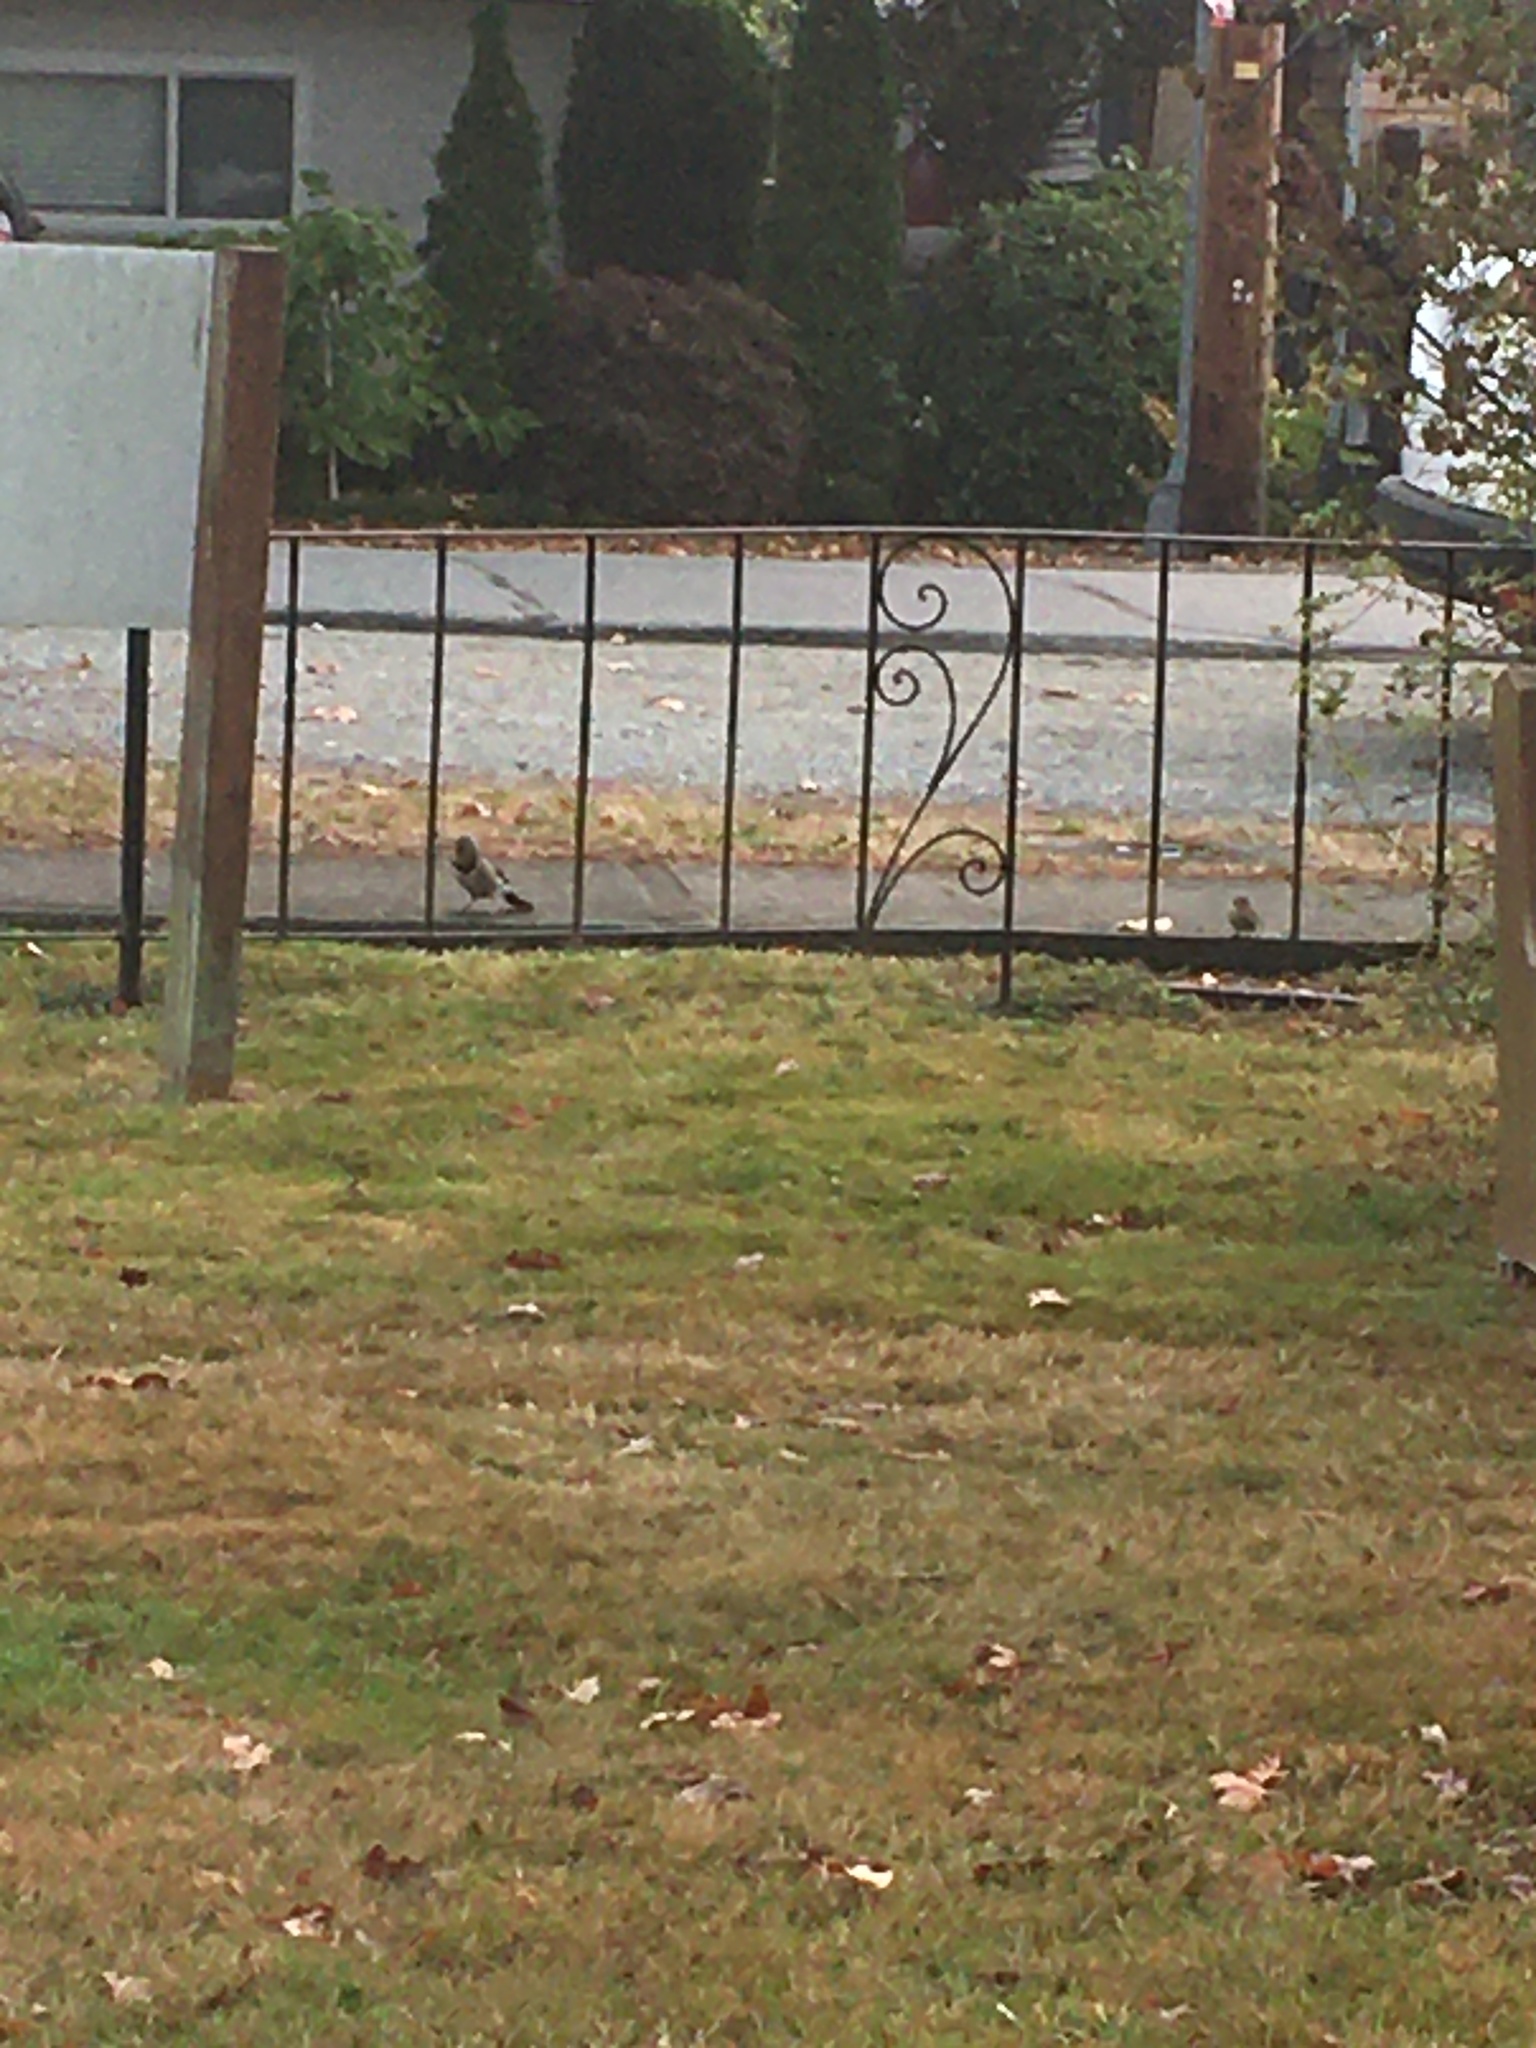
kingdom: Animalia
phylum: Chordata
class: Aves
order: Piciformes
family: Picidae
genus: Colaptes
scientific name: Colaptes auratus
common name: Northern flicker
